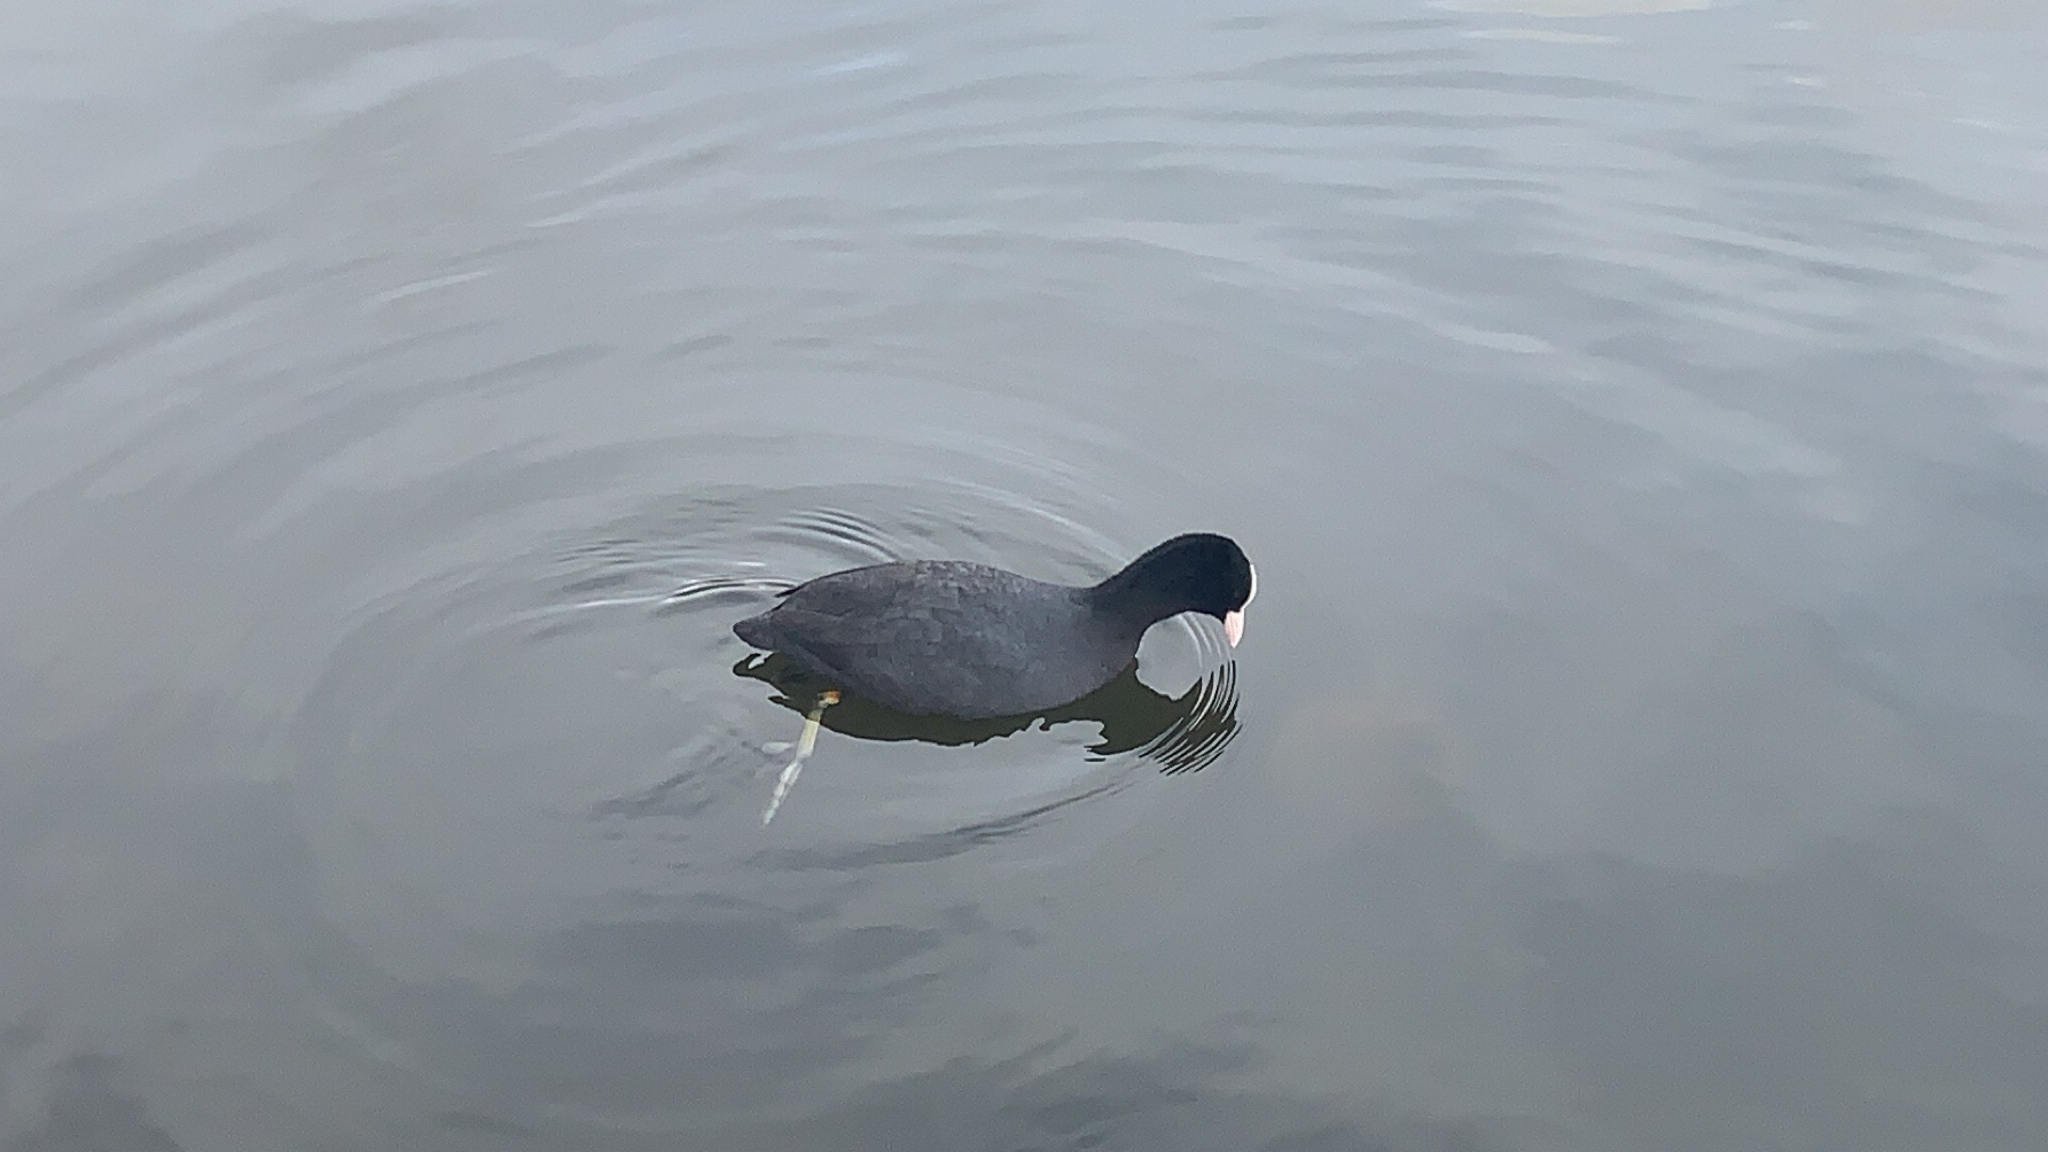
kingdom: Animalia
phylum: Chordata
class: Aves
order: Gruiformes
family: Rallidae
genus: Fulica
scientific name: Fulica atra
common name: Eurasian coot
